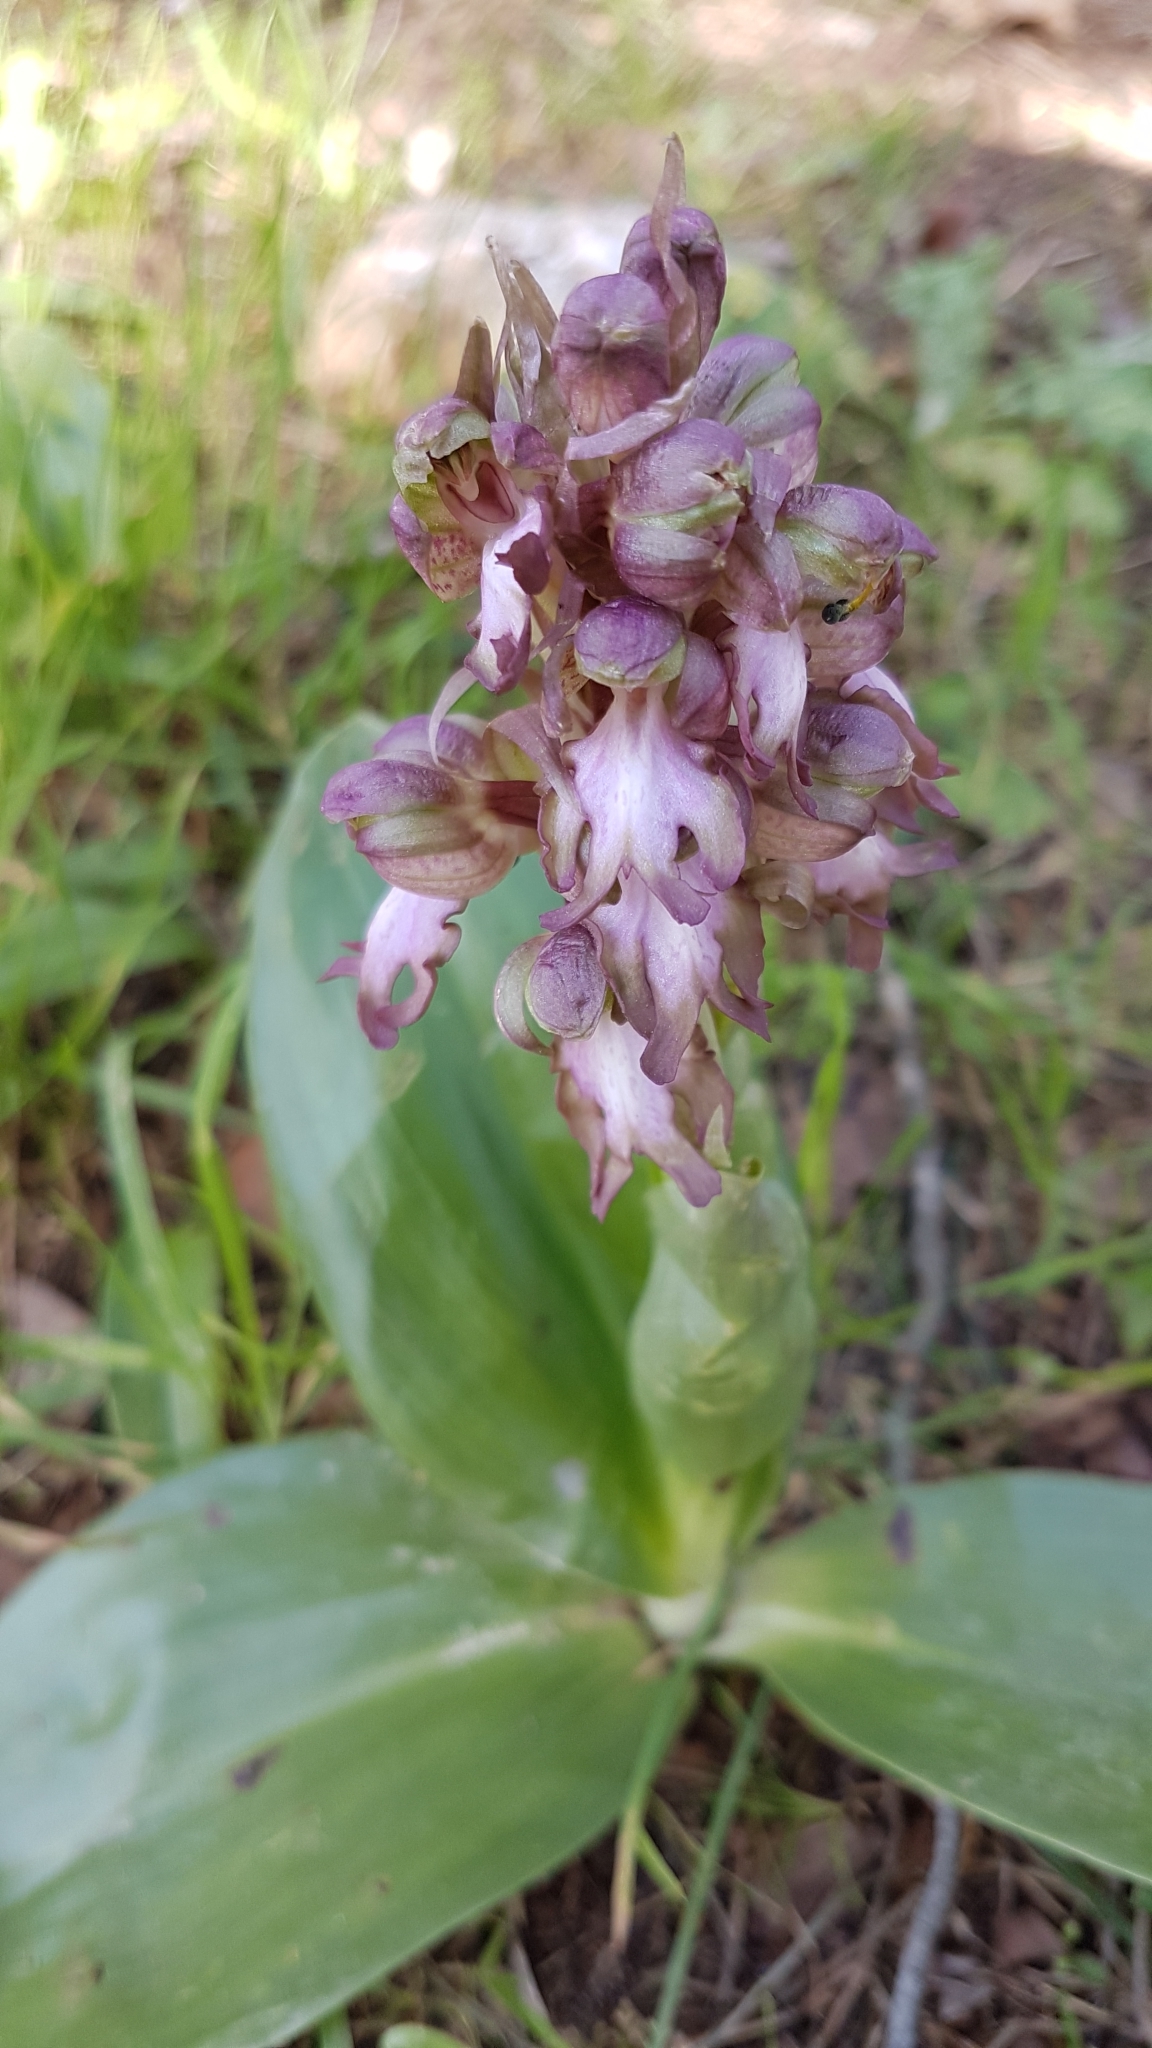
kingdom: Plantae
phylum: Tracheophyta
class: Liliopsida
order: Asparagales
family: Orchidaceae
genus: Himantoglossum
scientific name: Himantoglossum robertianum
